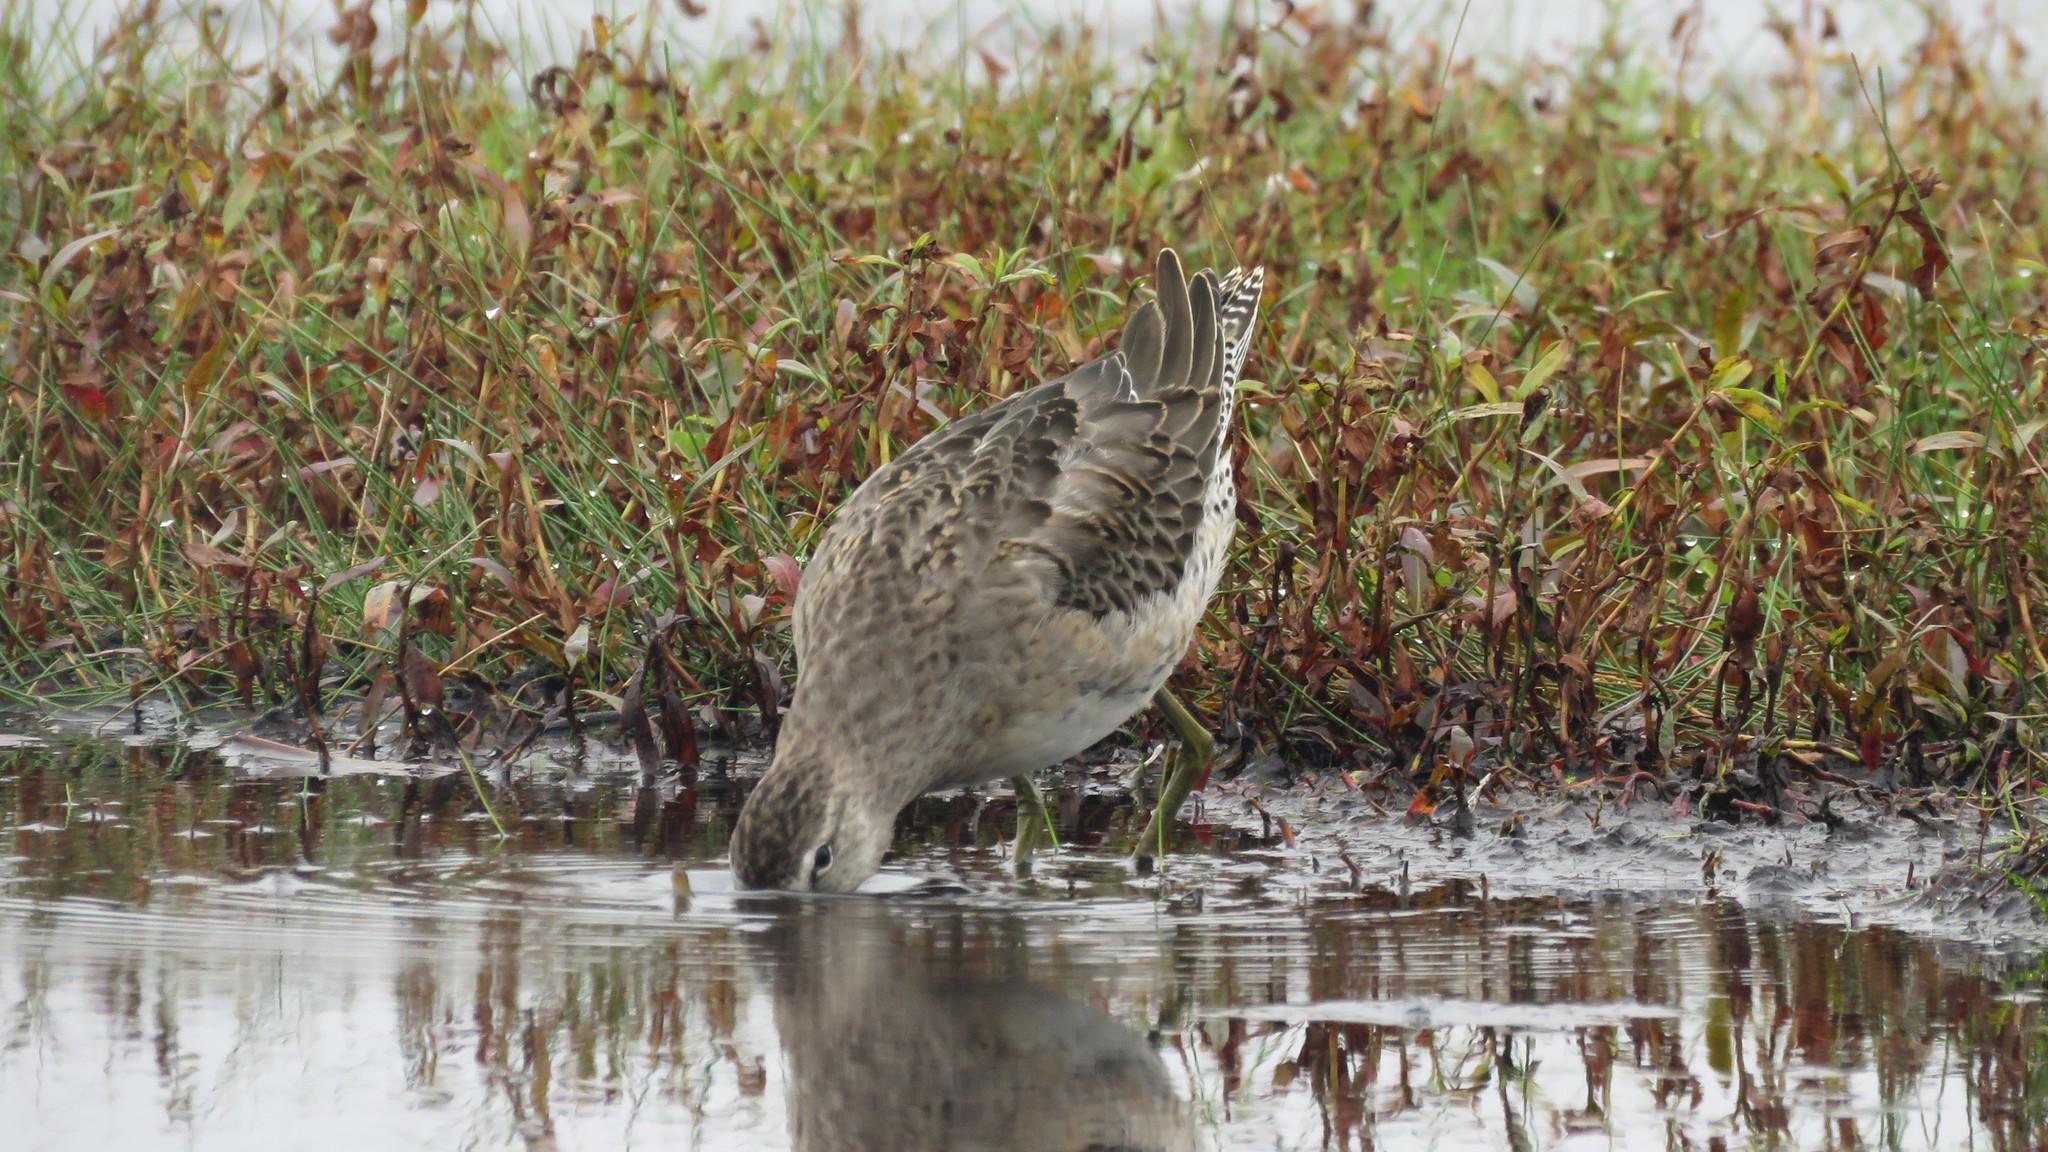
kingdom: Animalia
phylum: Chordata
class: Aves
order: Charadriiformes
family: Scolopacidae
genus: Limnodromus
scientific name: Limnodromus scolopaceus
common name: Long-billed dowitcher
